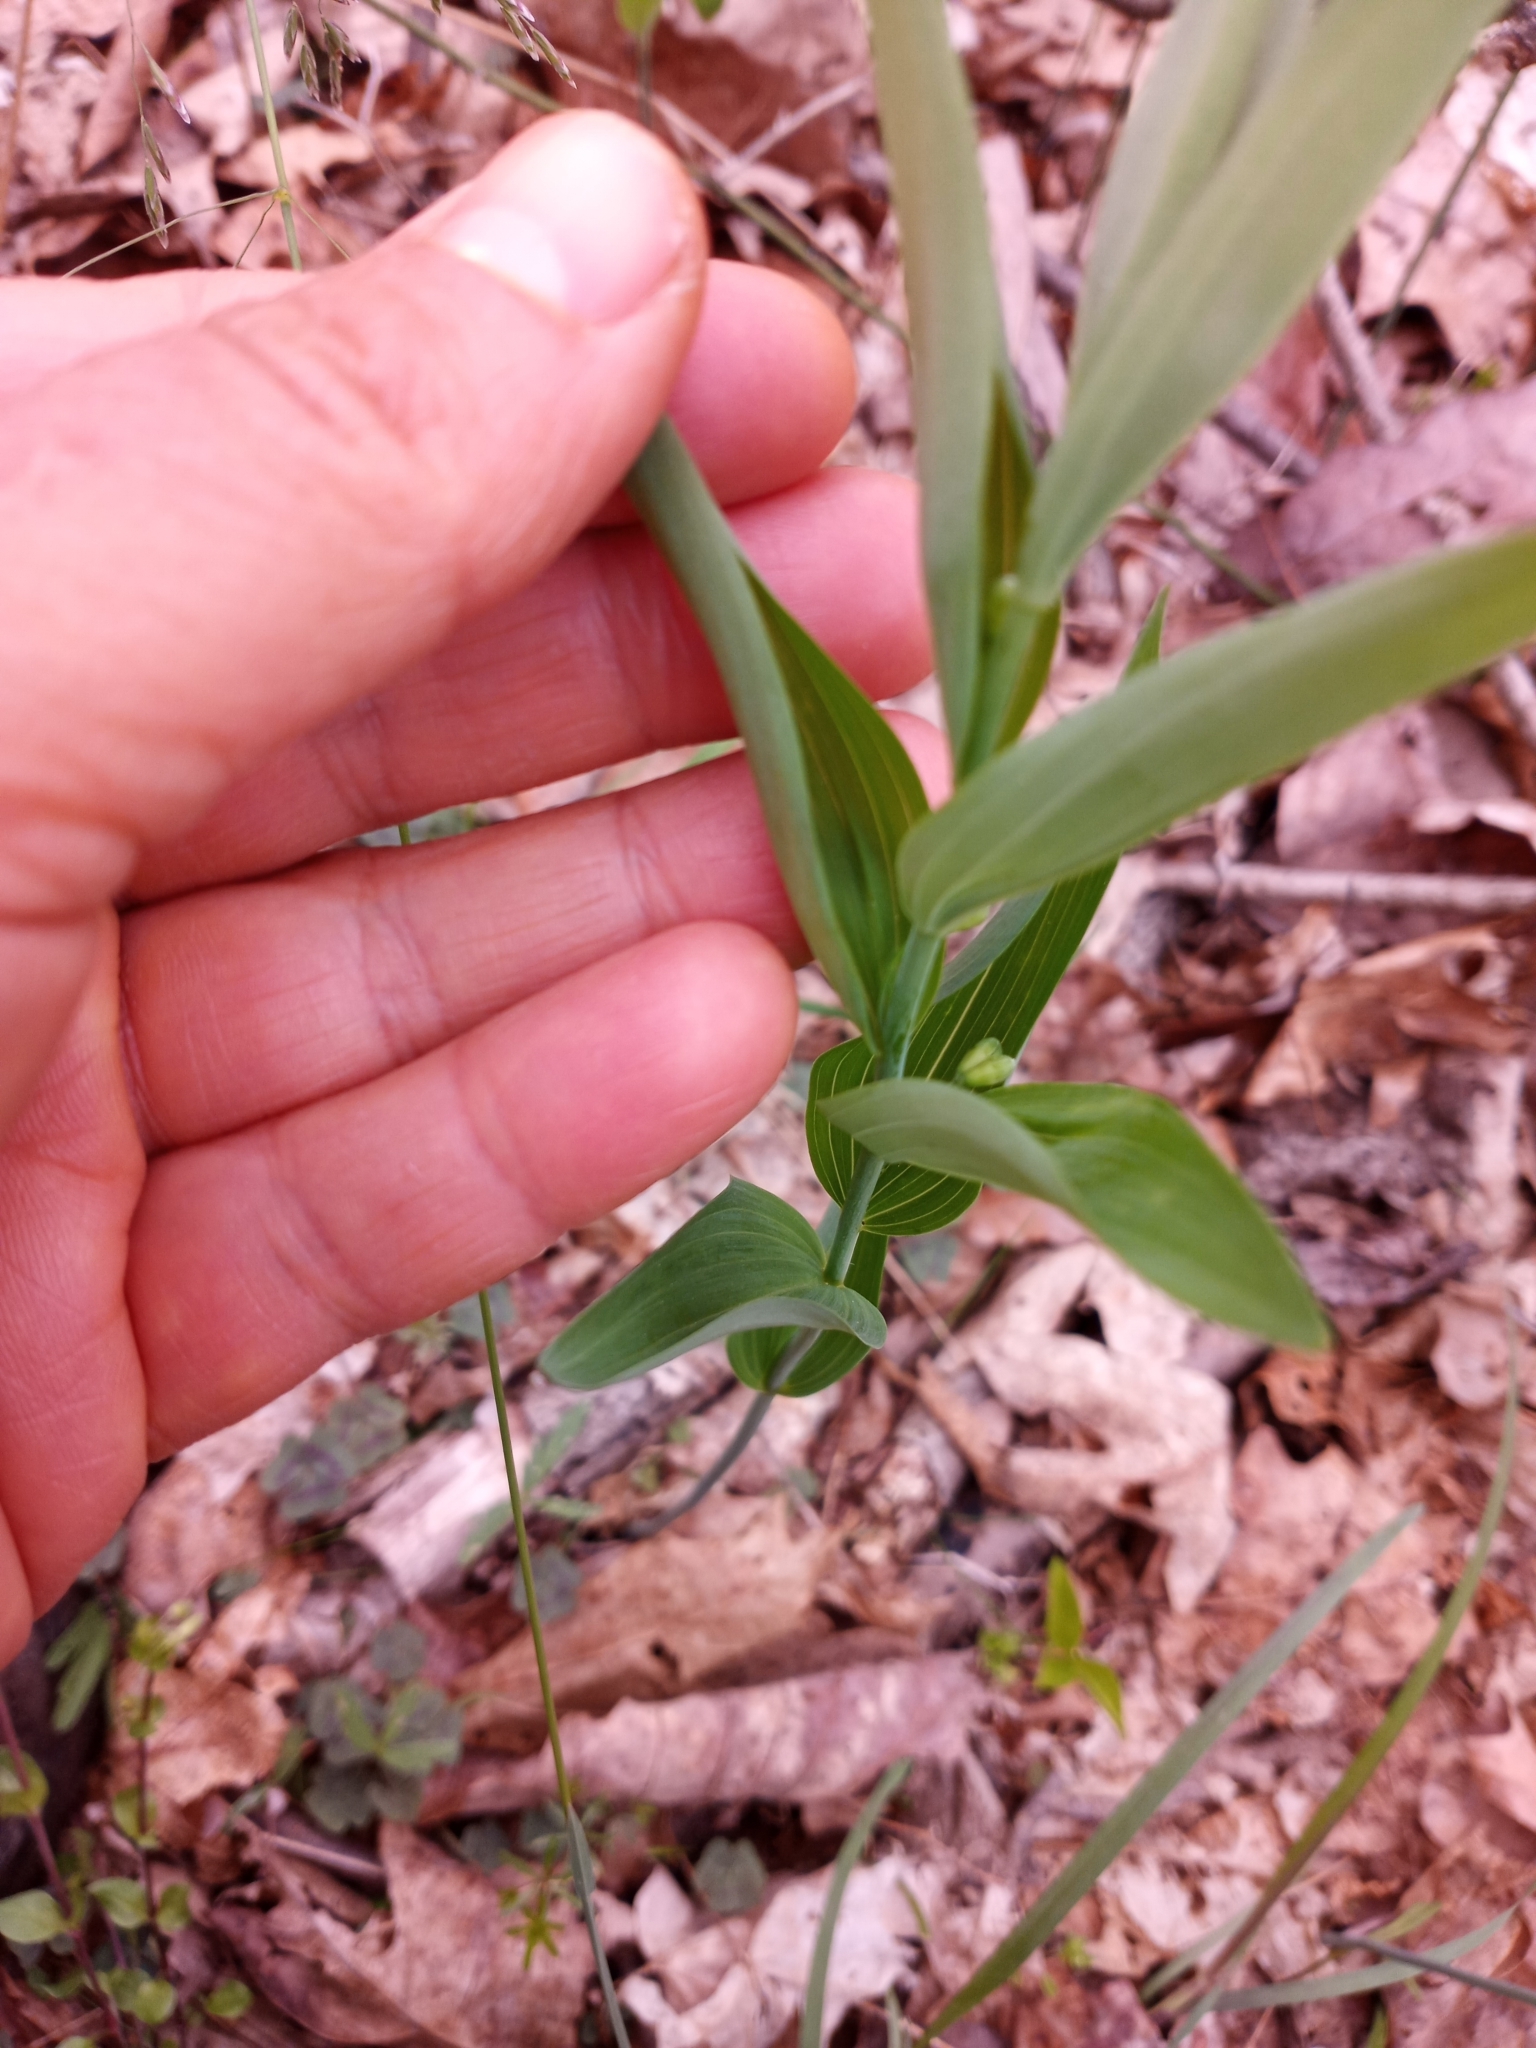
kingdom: Plantae
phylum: Tracheophyta
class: Liliopsida
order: Asparagales
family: Asparagaceae
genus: Polygonatum
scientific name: Polygonatum biflorum
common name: American solomon's-seal
